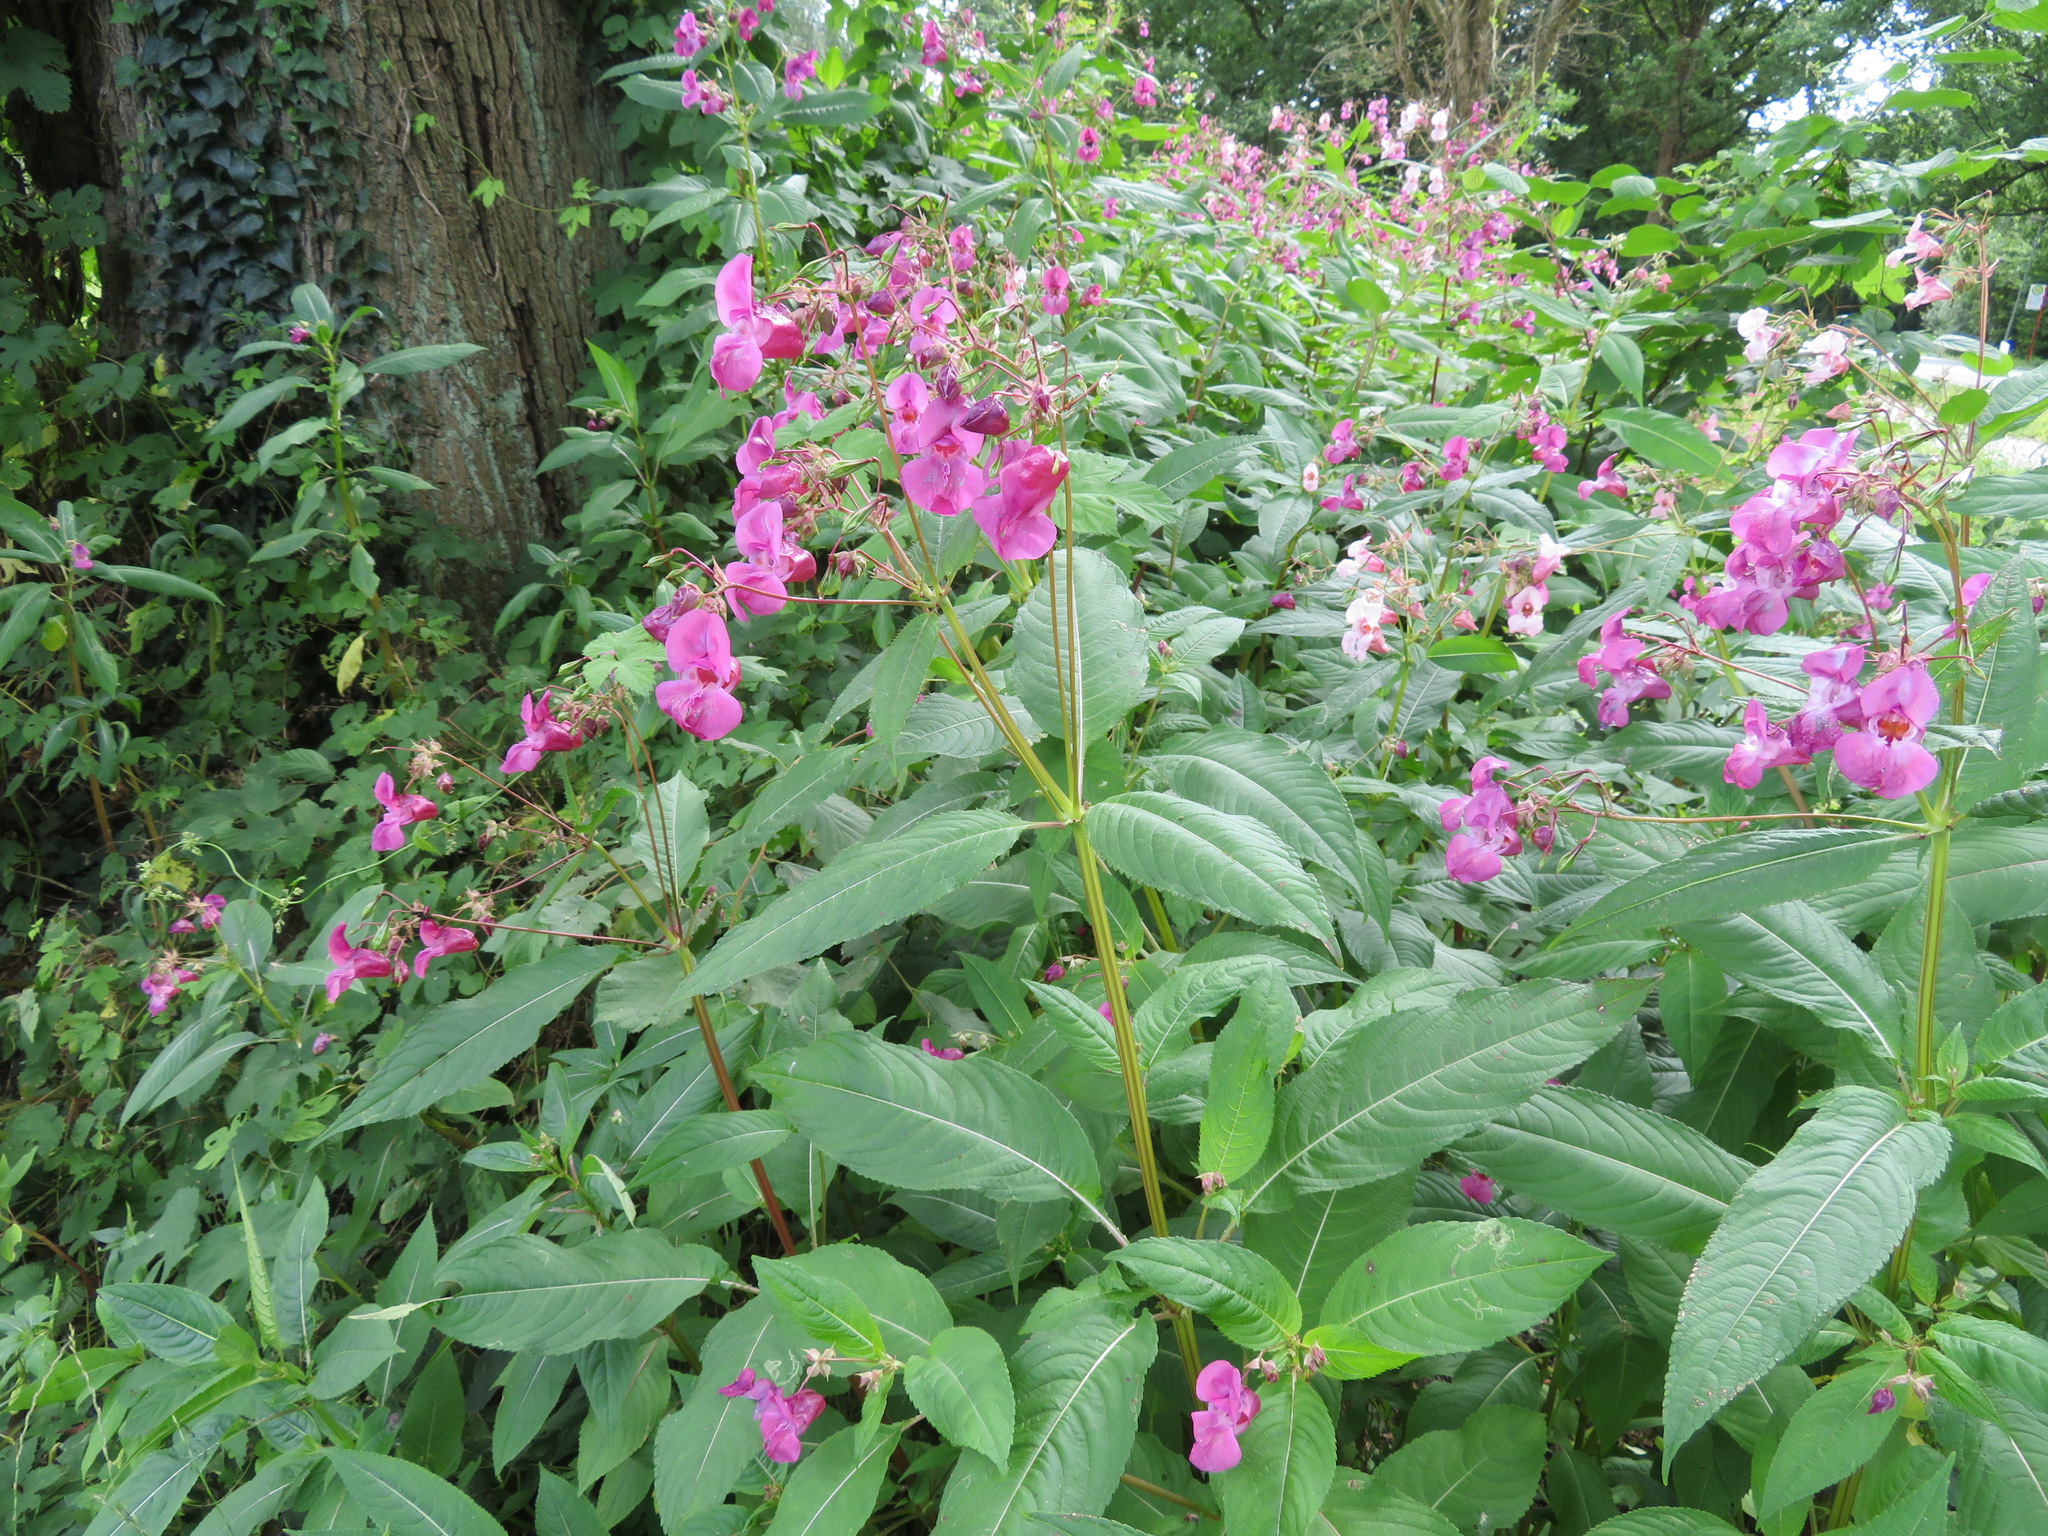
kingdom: Plantae
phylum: Tracheophyta
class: Magnoliopsida
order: Ericales
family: Balsaminaceae
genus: Impatiens
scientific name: Impatiens glandulifera
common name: Himalayan balsam
